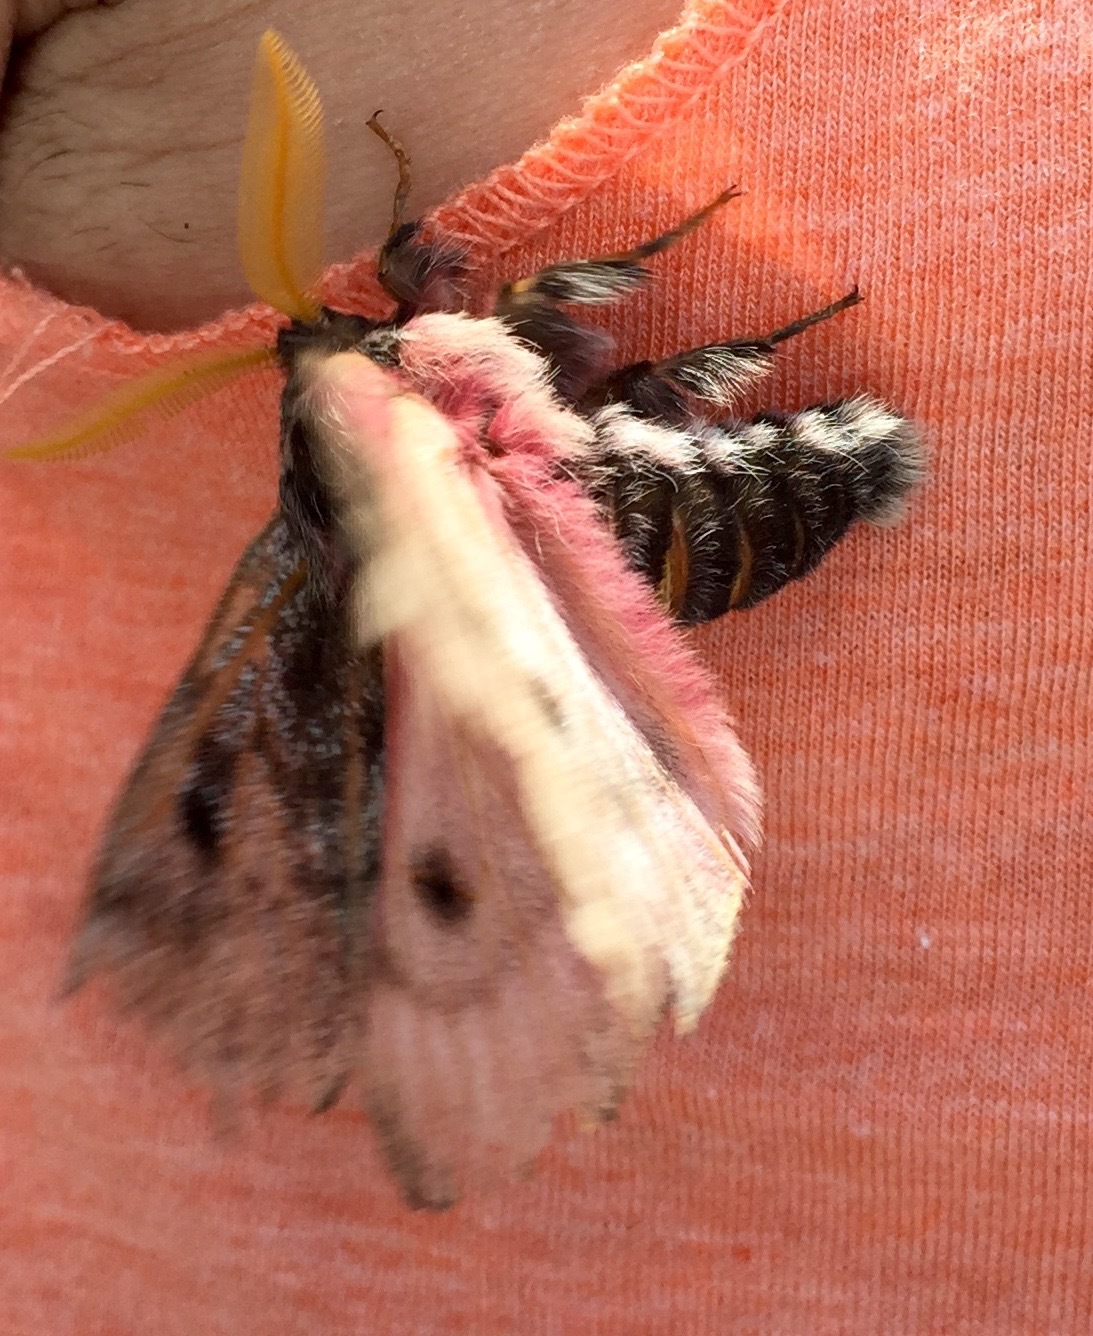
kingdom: Animalia
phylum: Arthropoda
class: Insecta
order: Lepidoptera
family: Saturniidae
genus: Coloradia
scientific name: Coloradia pandora
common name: Pandora pinemoth
